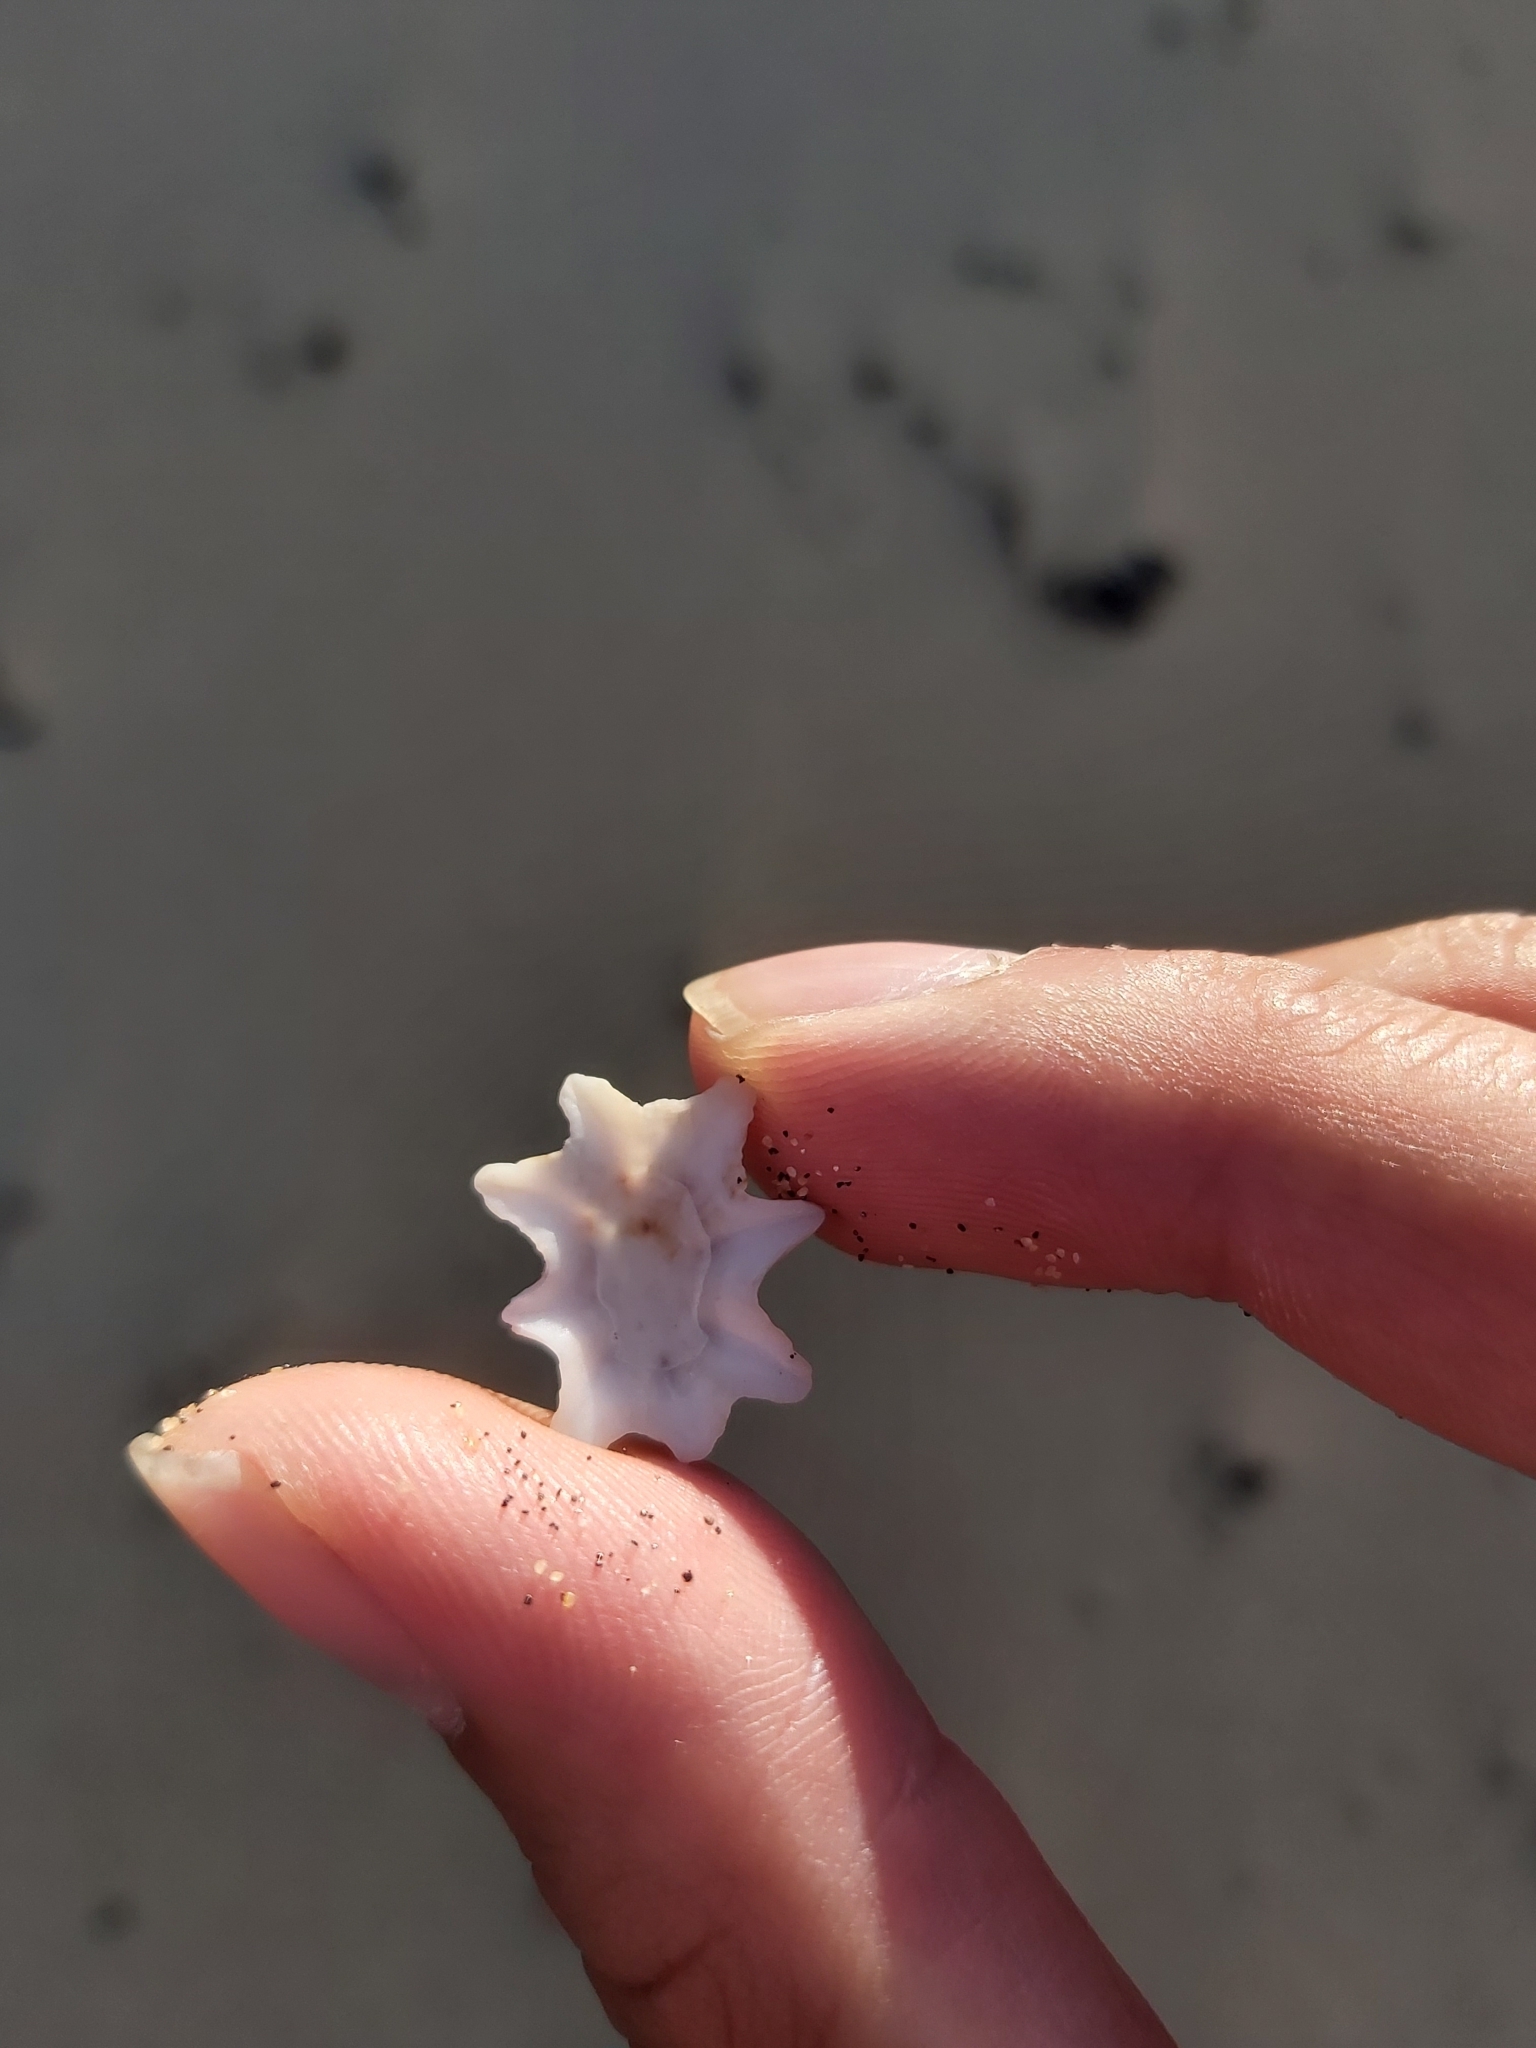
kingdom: Animalia
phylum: Mollusca
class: Gastropoda
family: Patellidae
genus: Scutellastra
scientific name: Scutellastra chapmani
